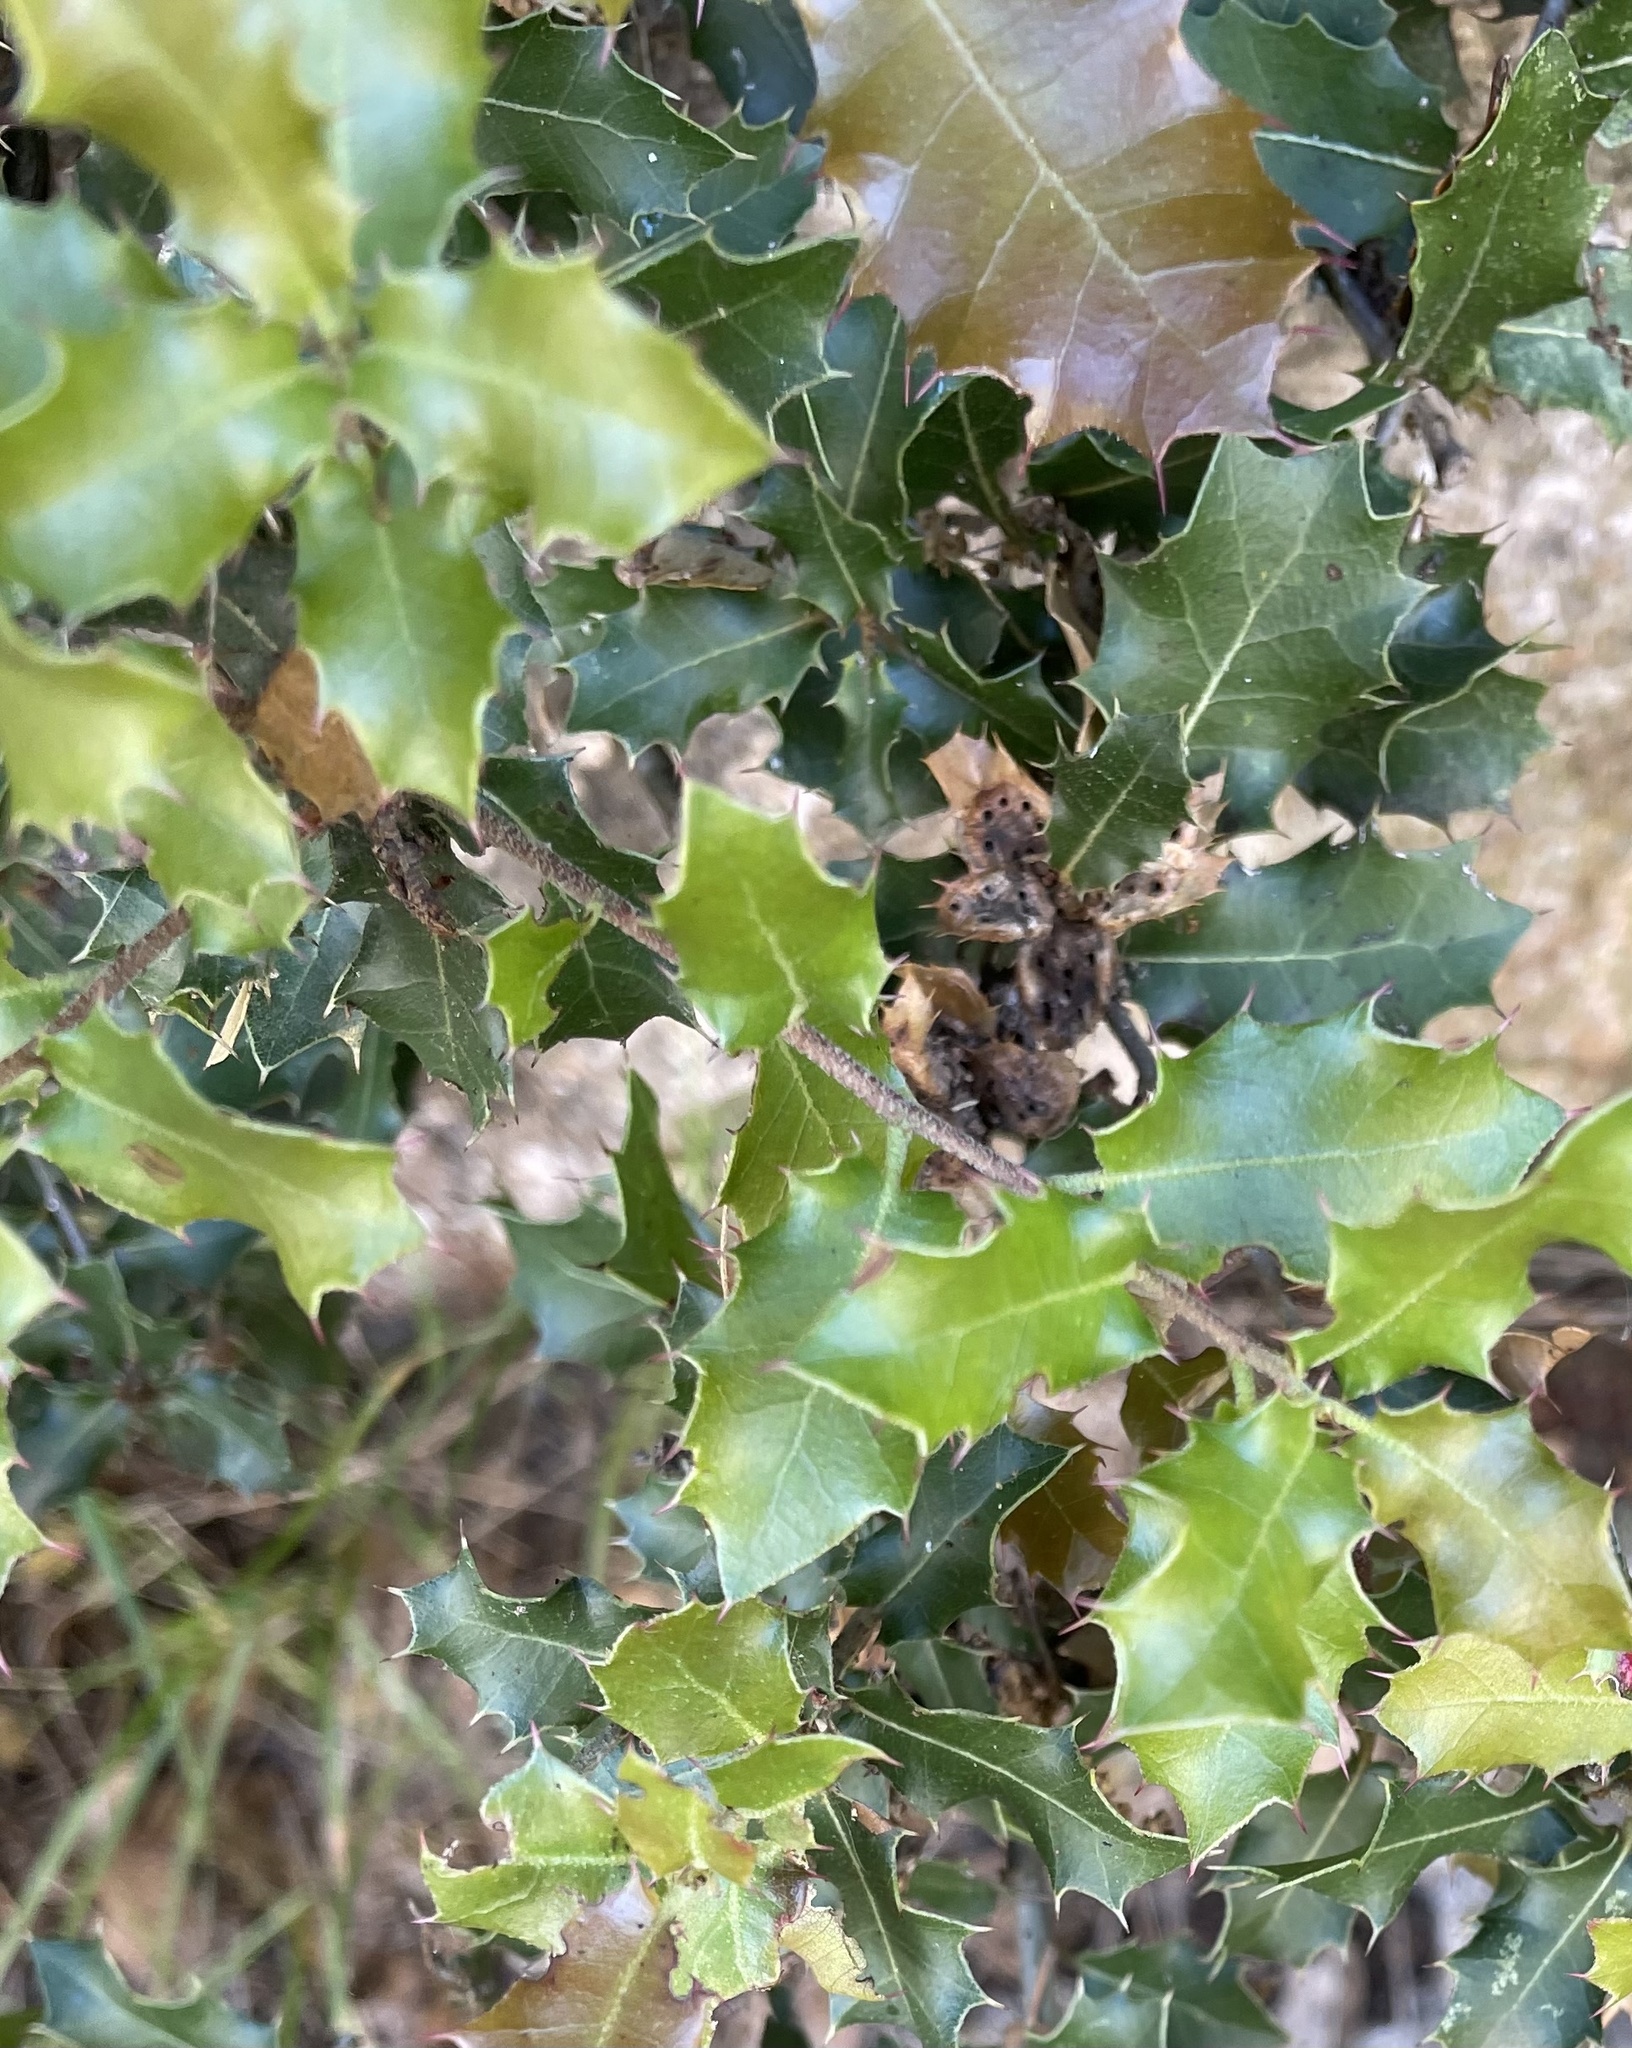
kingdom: Plantae
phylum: Tracheophyta
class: Magnoliopsida
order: Fagales
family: Fagaceae
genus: Quercus
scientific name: Quercus coccifera
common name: Kermes oak
